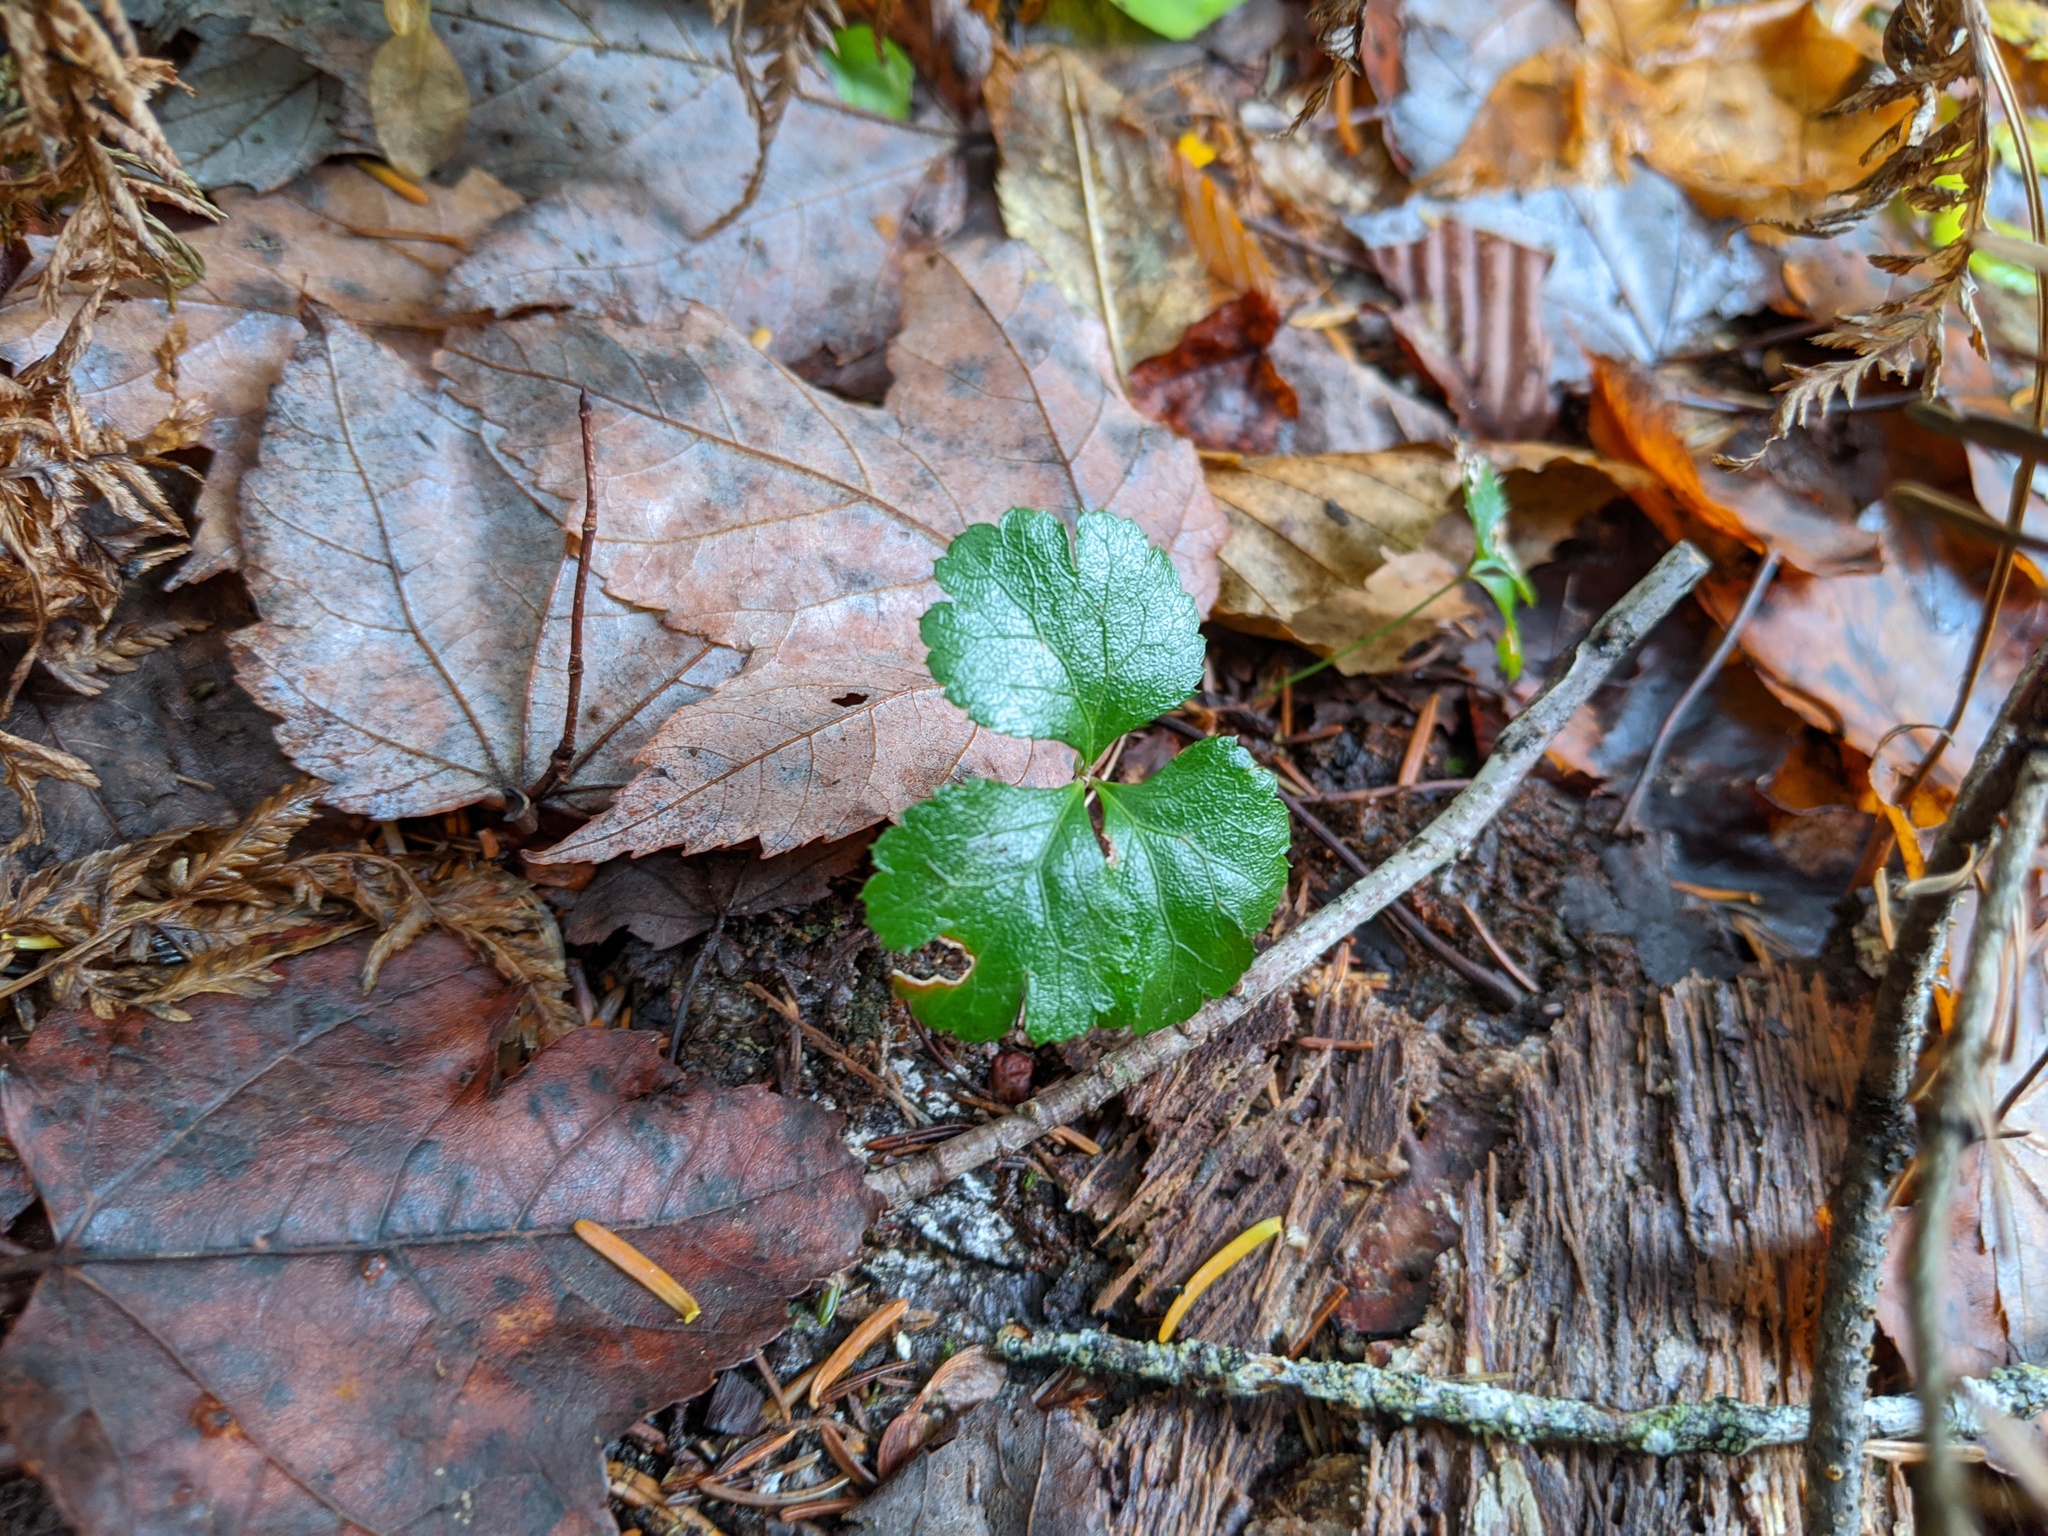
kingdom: Plantae
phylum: Tracheophyta
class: Magnoliopsida
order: Ranunculales
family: Ranunculaceae
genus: Coptis
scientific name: Coptis trifolia
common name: Canker-root
